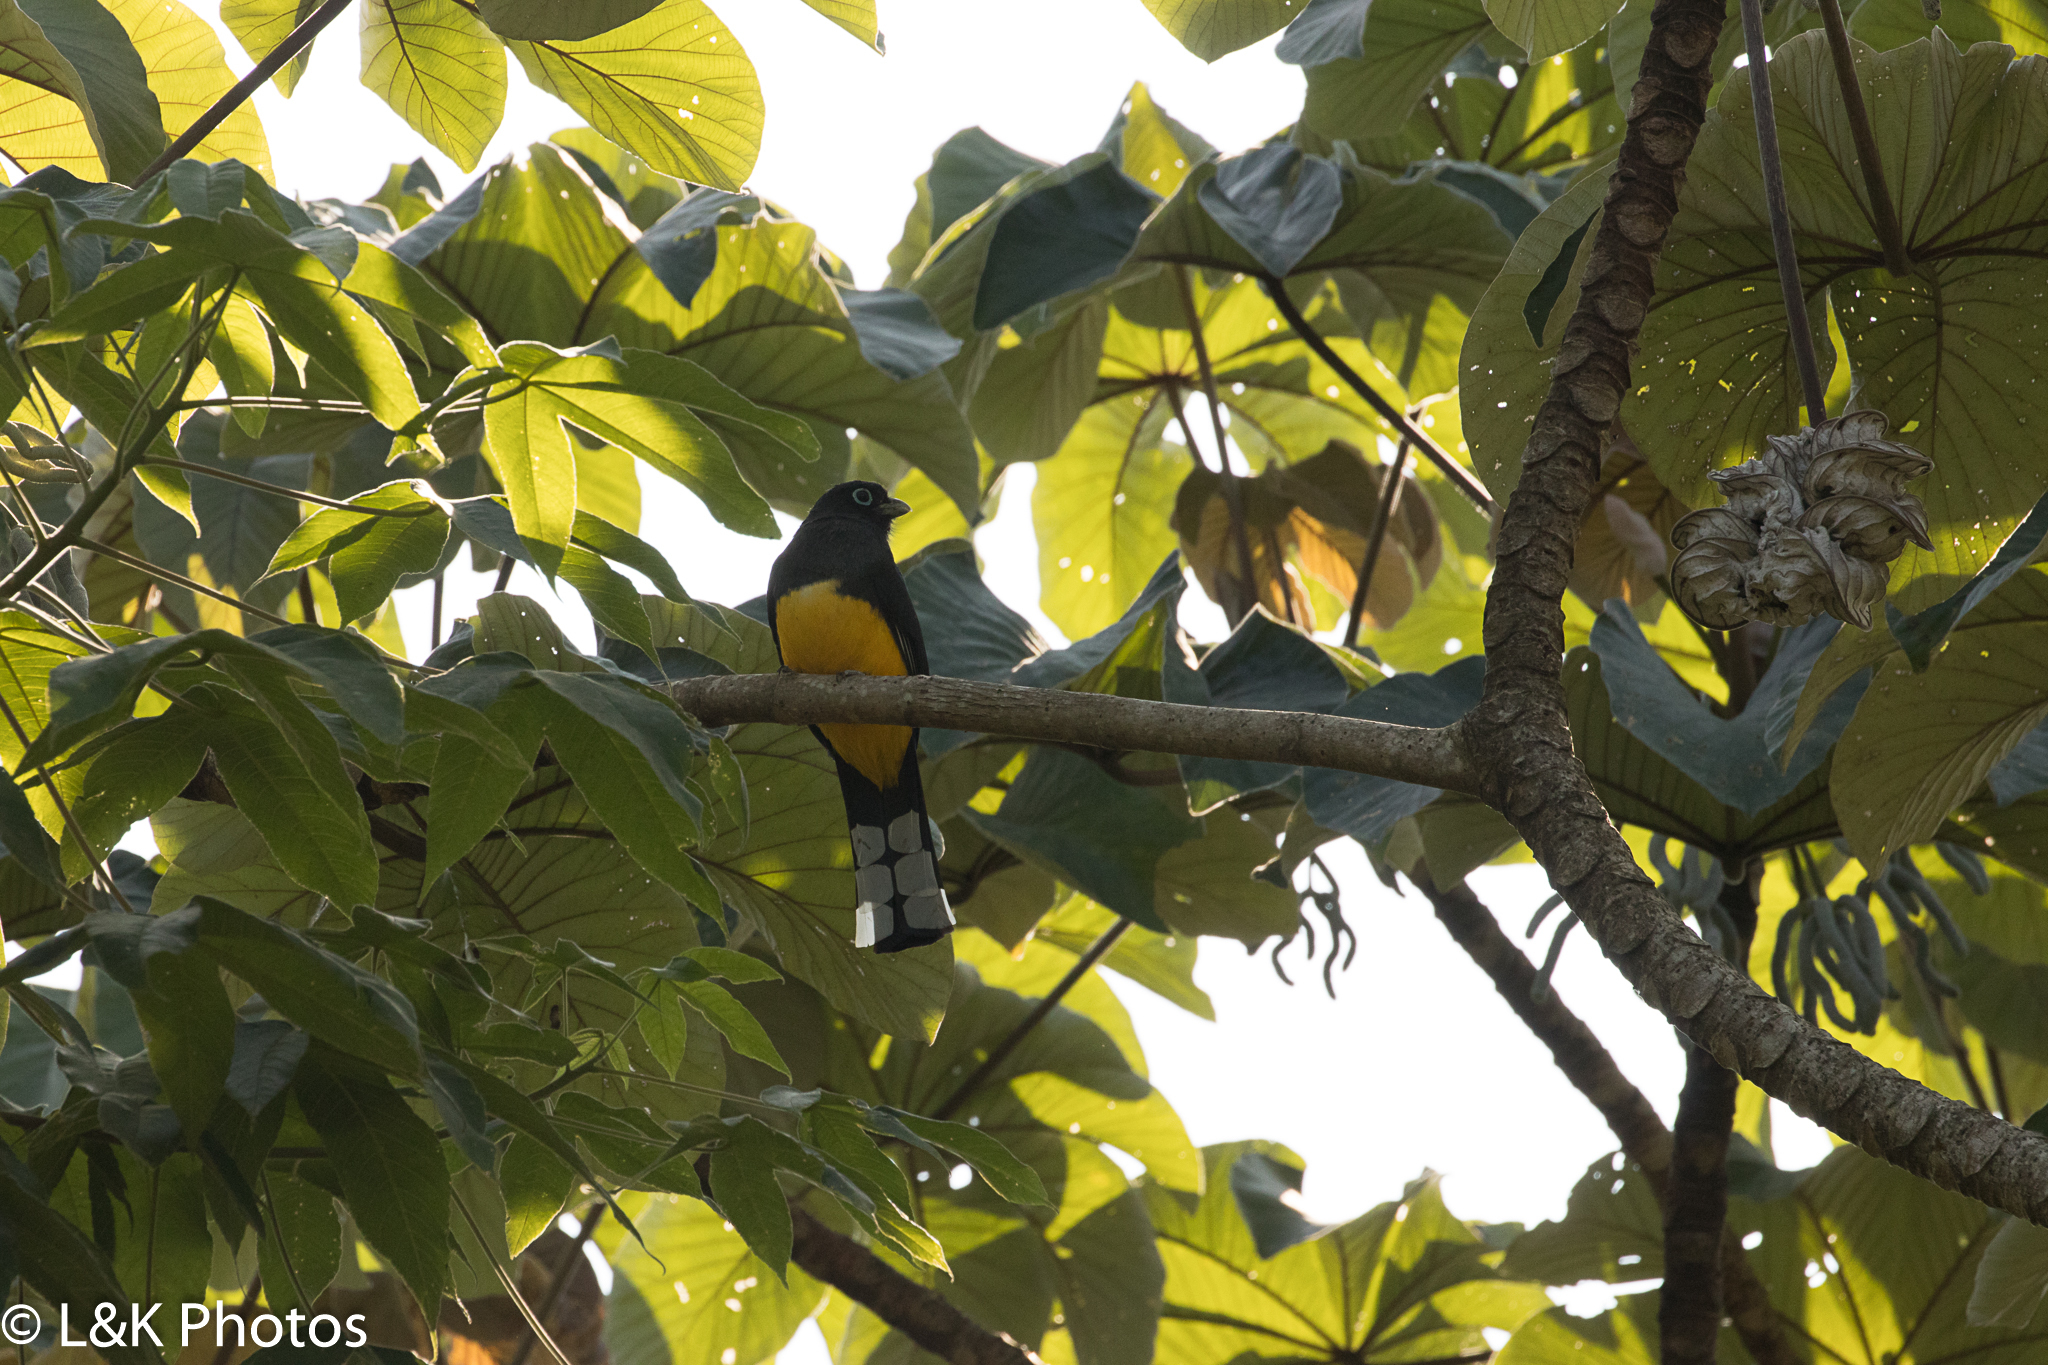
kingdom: Animalia
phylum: Chordata
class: Aves
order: Trogoniformes
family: Trogonidae
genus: Trogon
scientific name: Trogon melanocephalus
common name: Black-headed trogon
